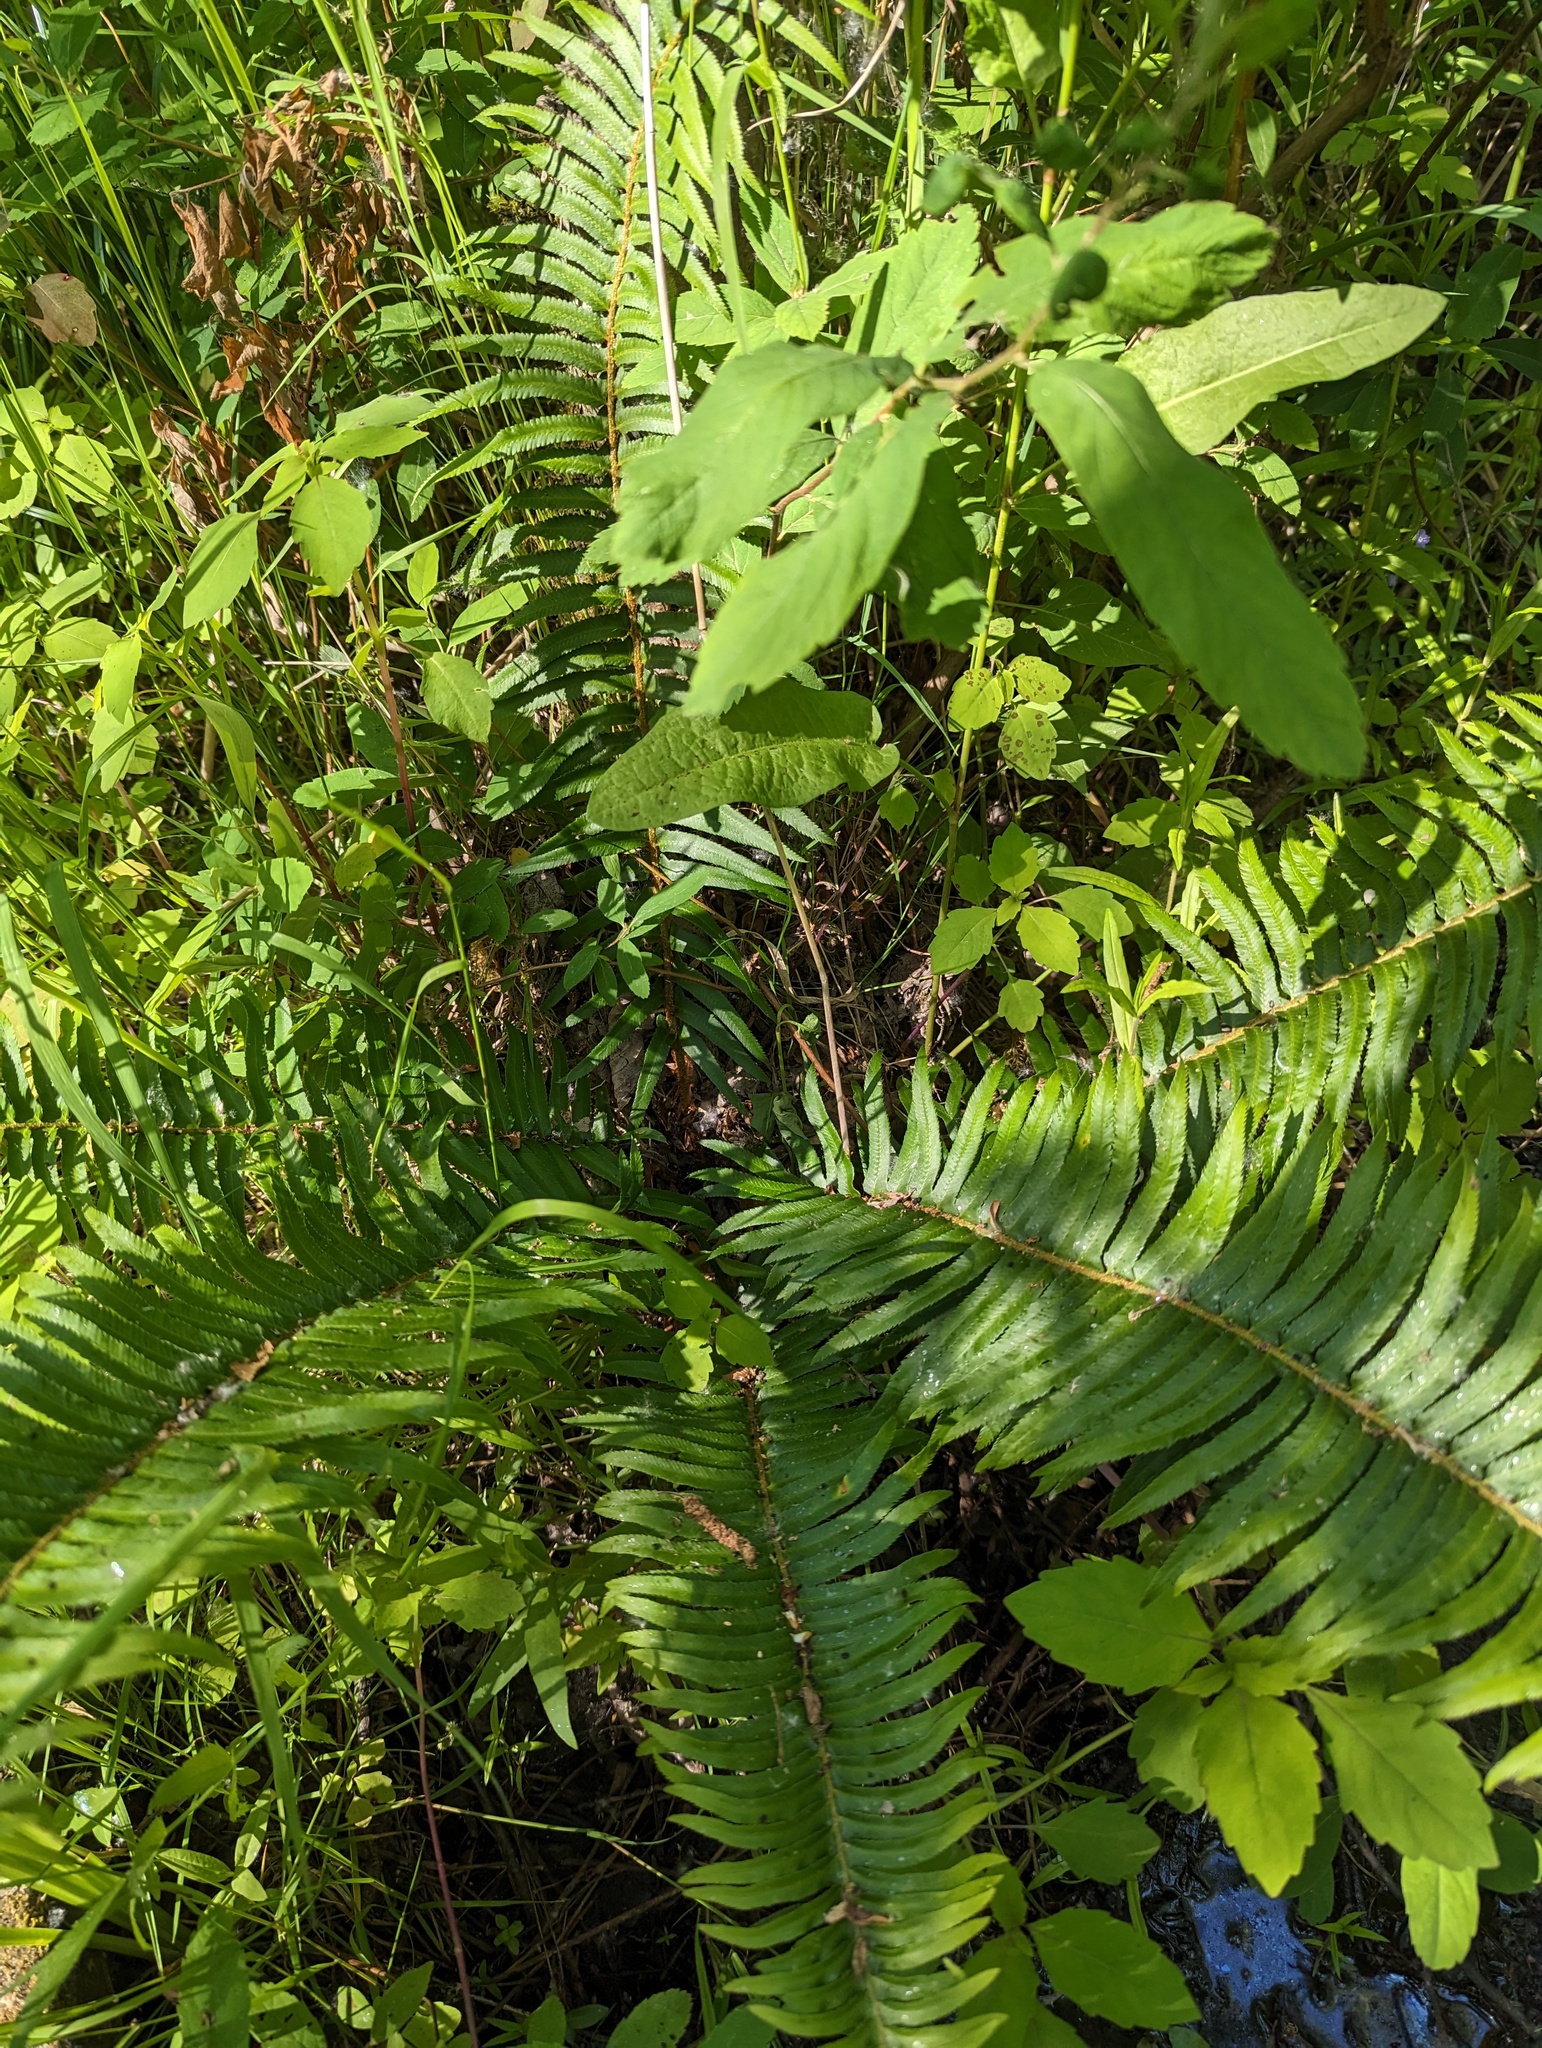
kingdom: Plantae
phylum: Tracheophyta
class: Polypodiopsida
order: Polypodiales
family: Dryopteridaceae
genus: Polystichum
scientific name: Polystichum munitum
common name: Western sword-fern
